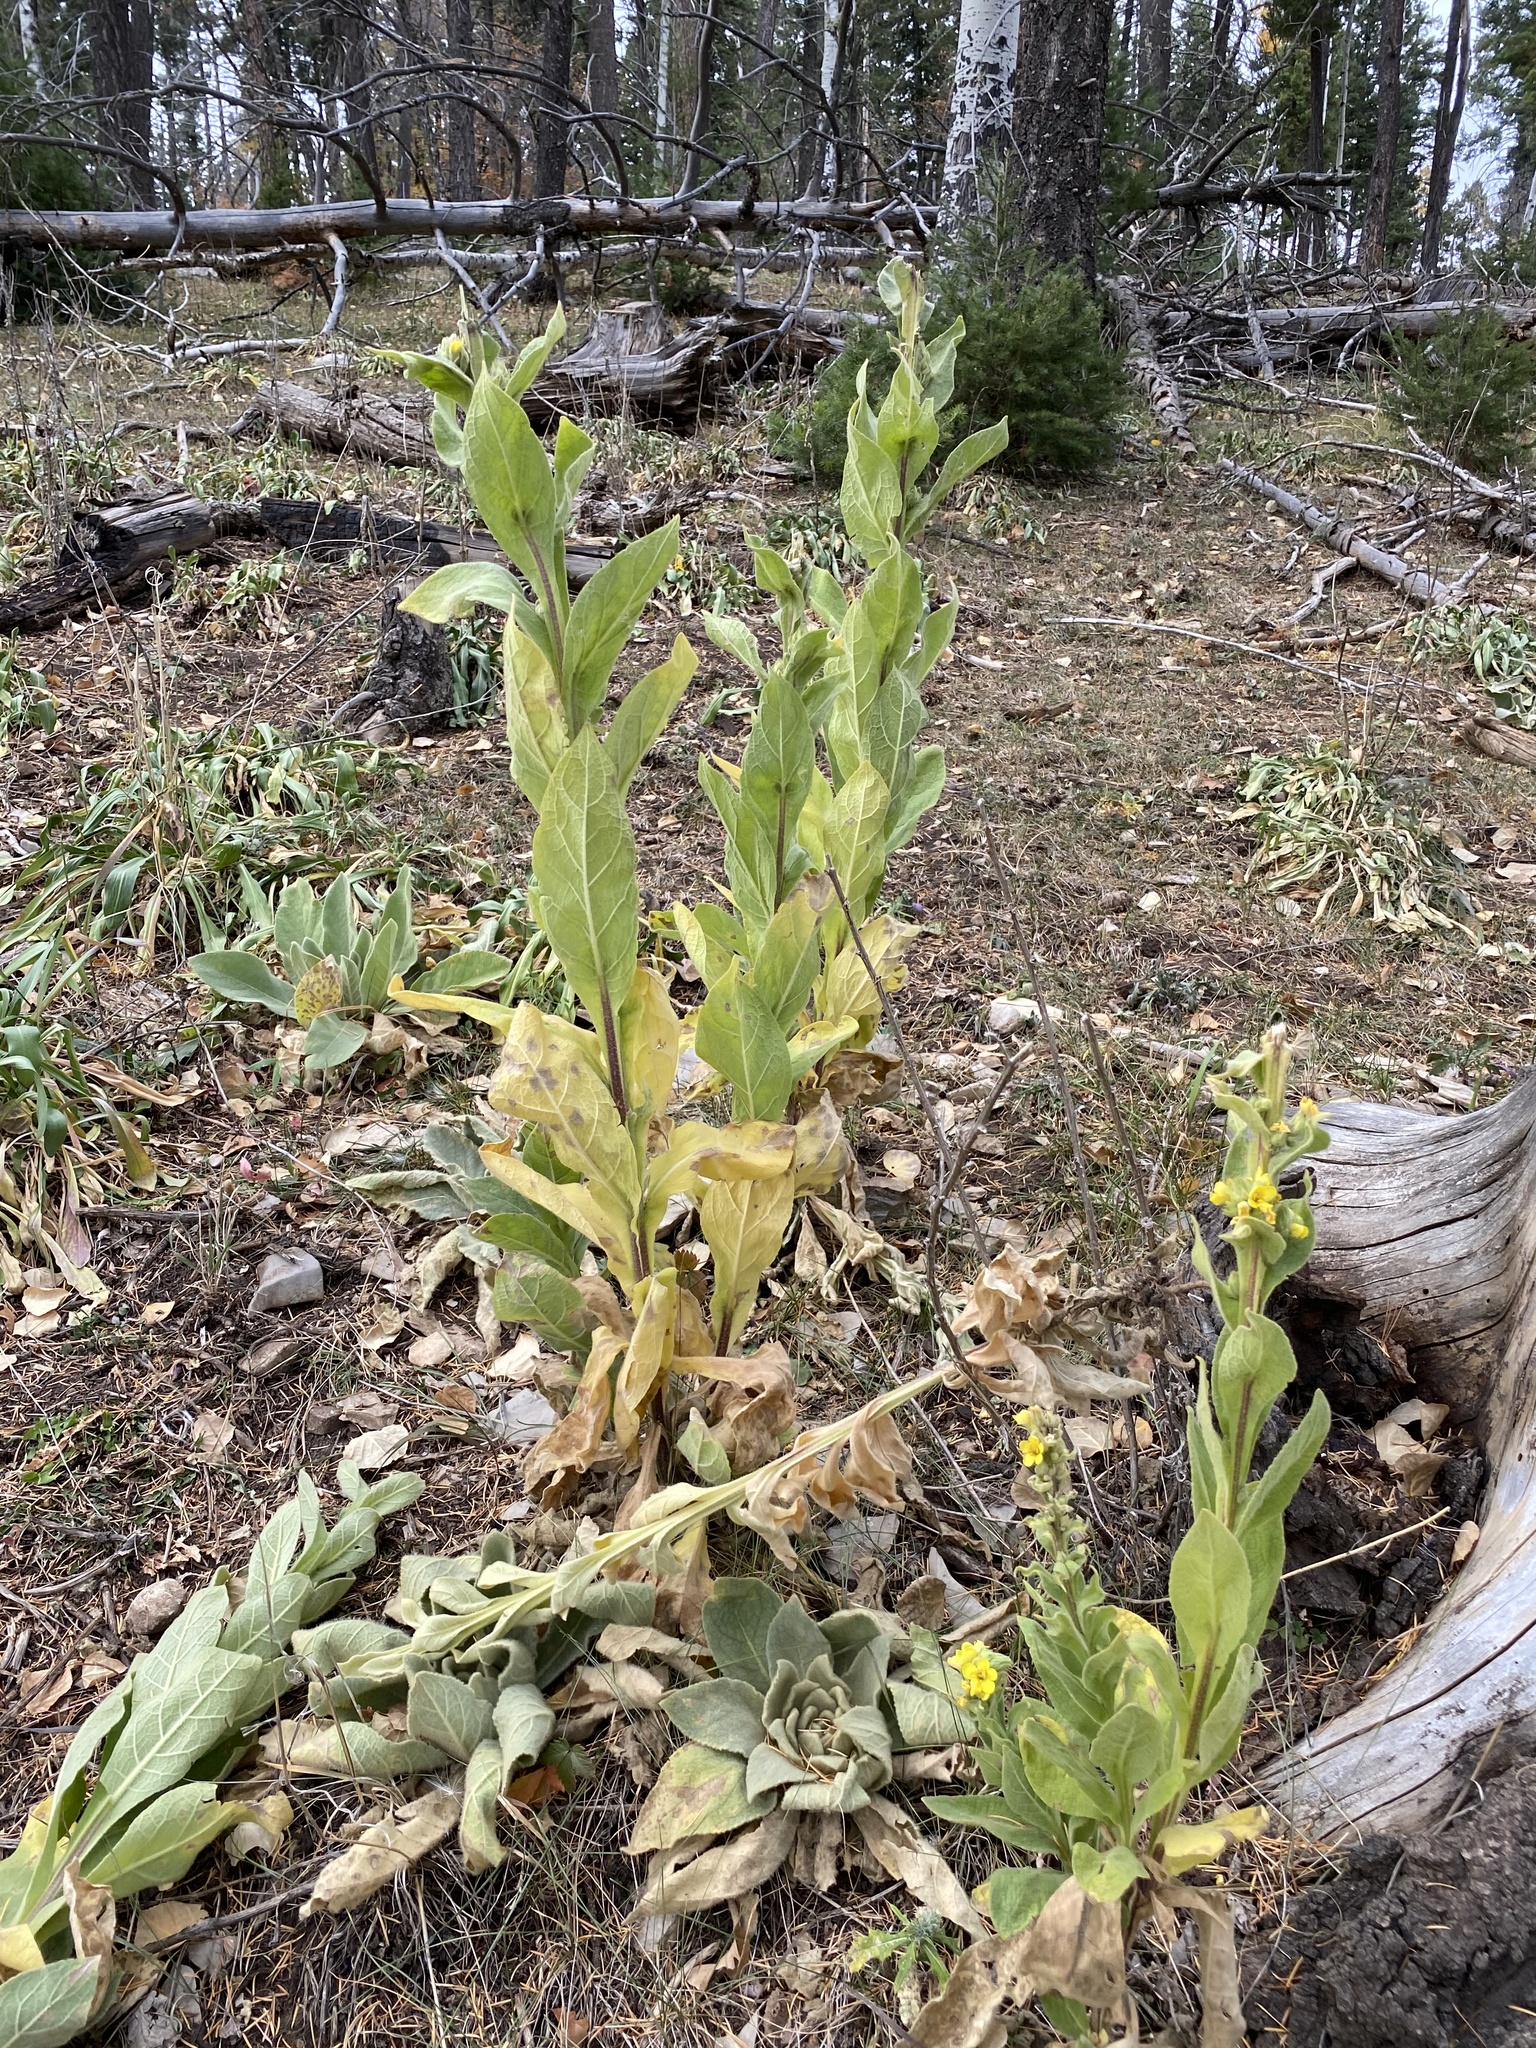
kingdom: Plantae
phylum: Tracheophyta
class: Magnoliopsida
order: Lamiales
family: Scrophulariaceae
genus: Verbascum
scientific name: Verbascum thapsus
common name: Common mullein
